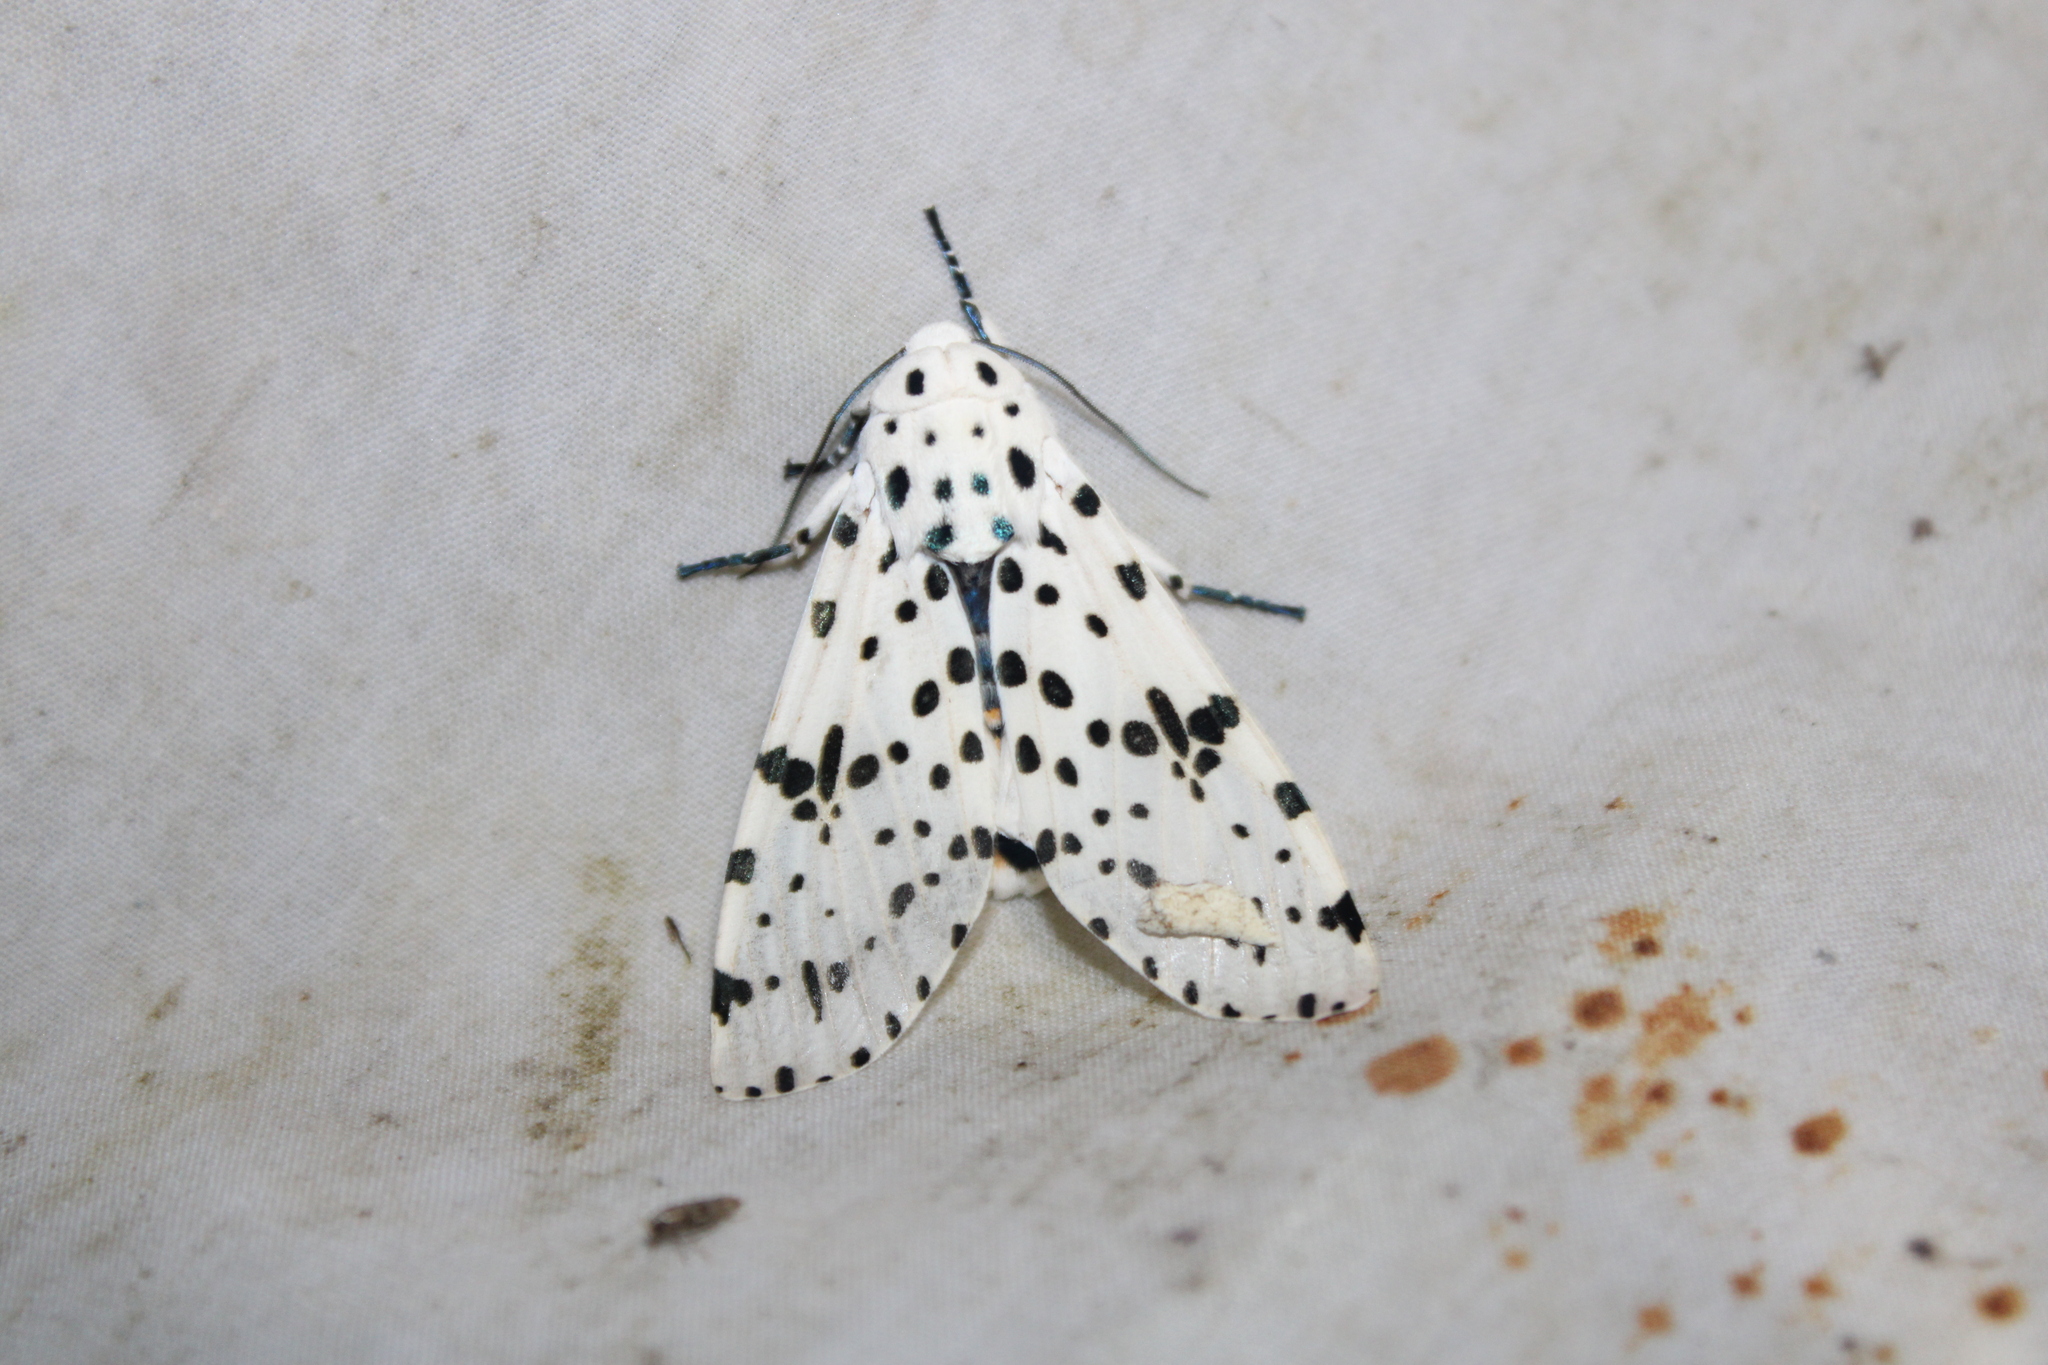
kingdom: Animalia
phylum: Arthropoda
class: Insecta
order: Lepidoptera
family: Erebidae
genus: Hypercompe
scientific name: Hypercompe scribonia
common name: Giant leopard moth
